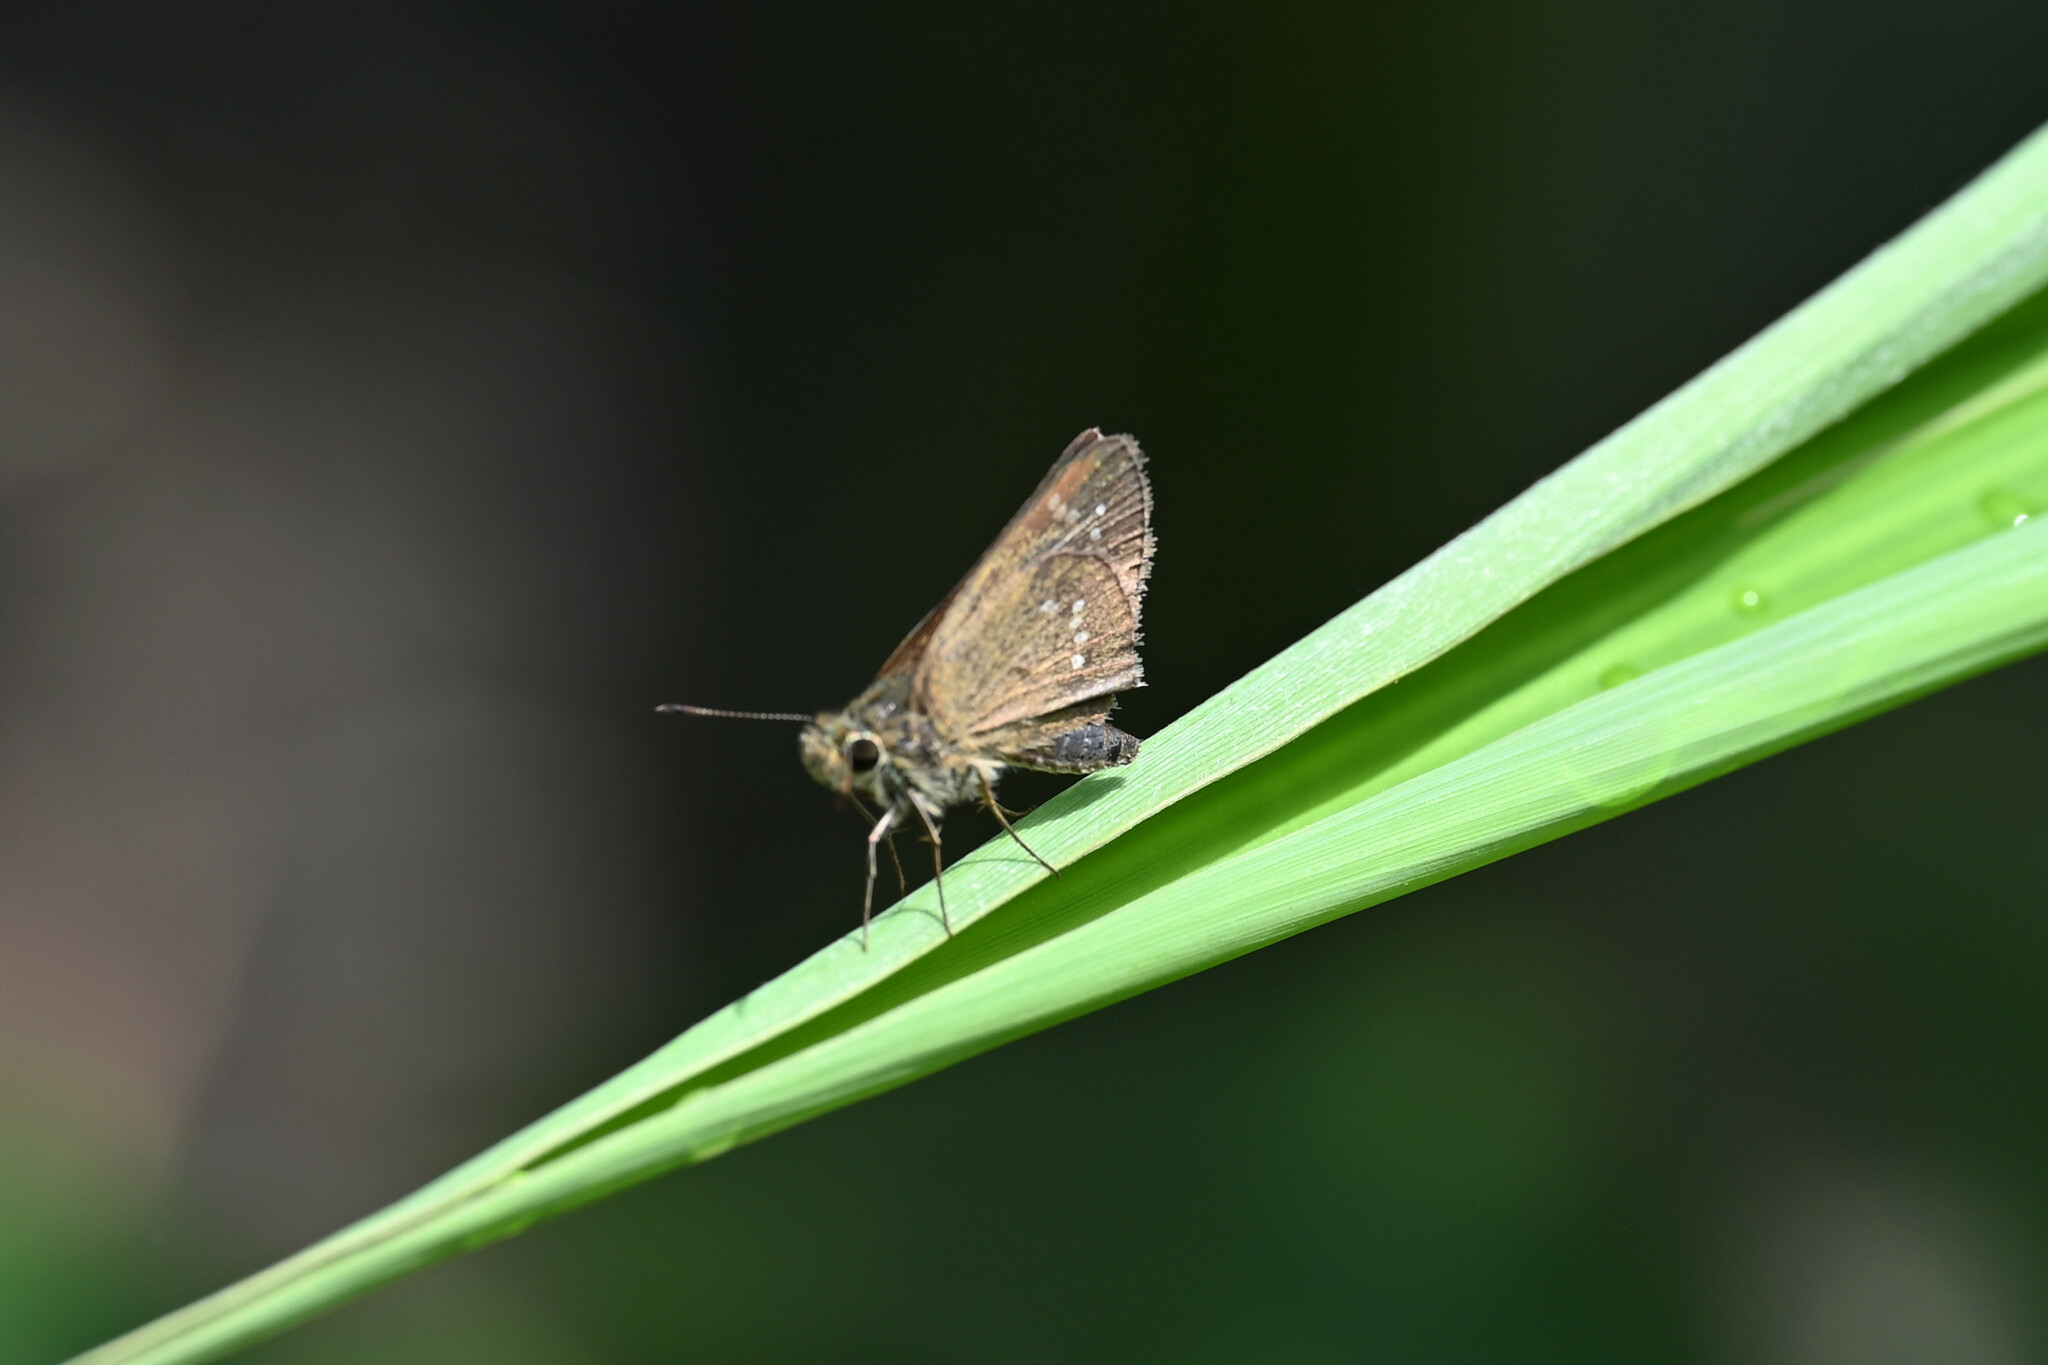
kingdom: Animalia
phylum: Arthropoda
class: Insecta
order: Lepidoptera
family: Hesperiidae
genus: Pseudoborbo
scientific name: Pseudoborbo bevani
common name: Bevan's swift
